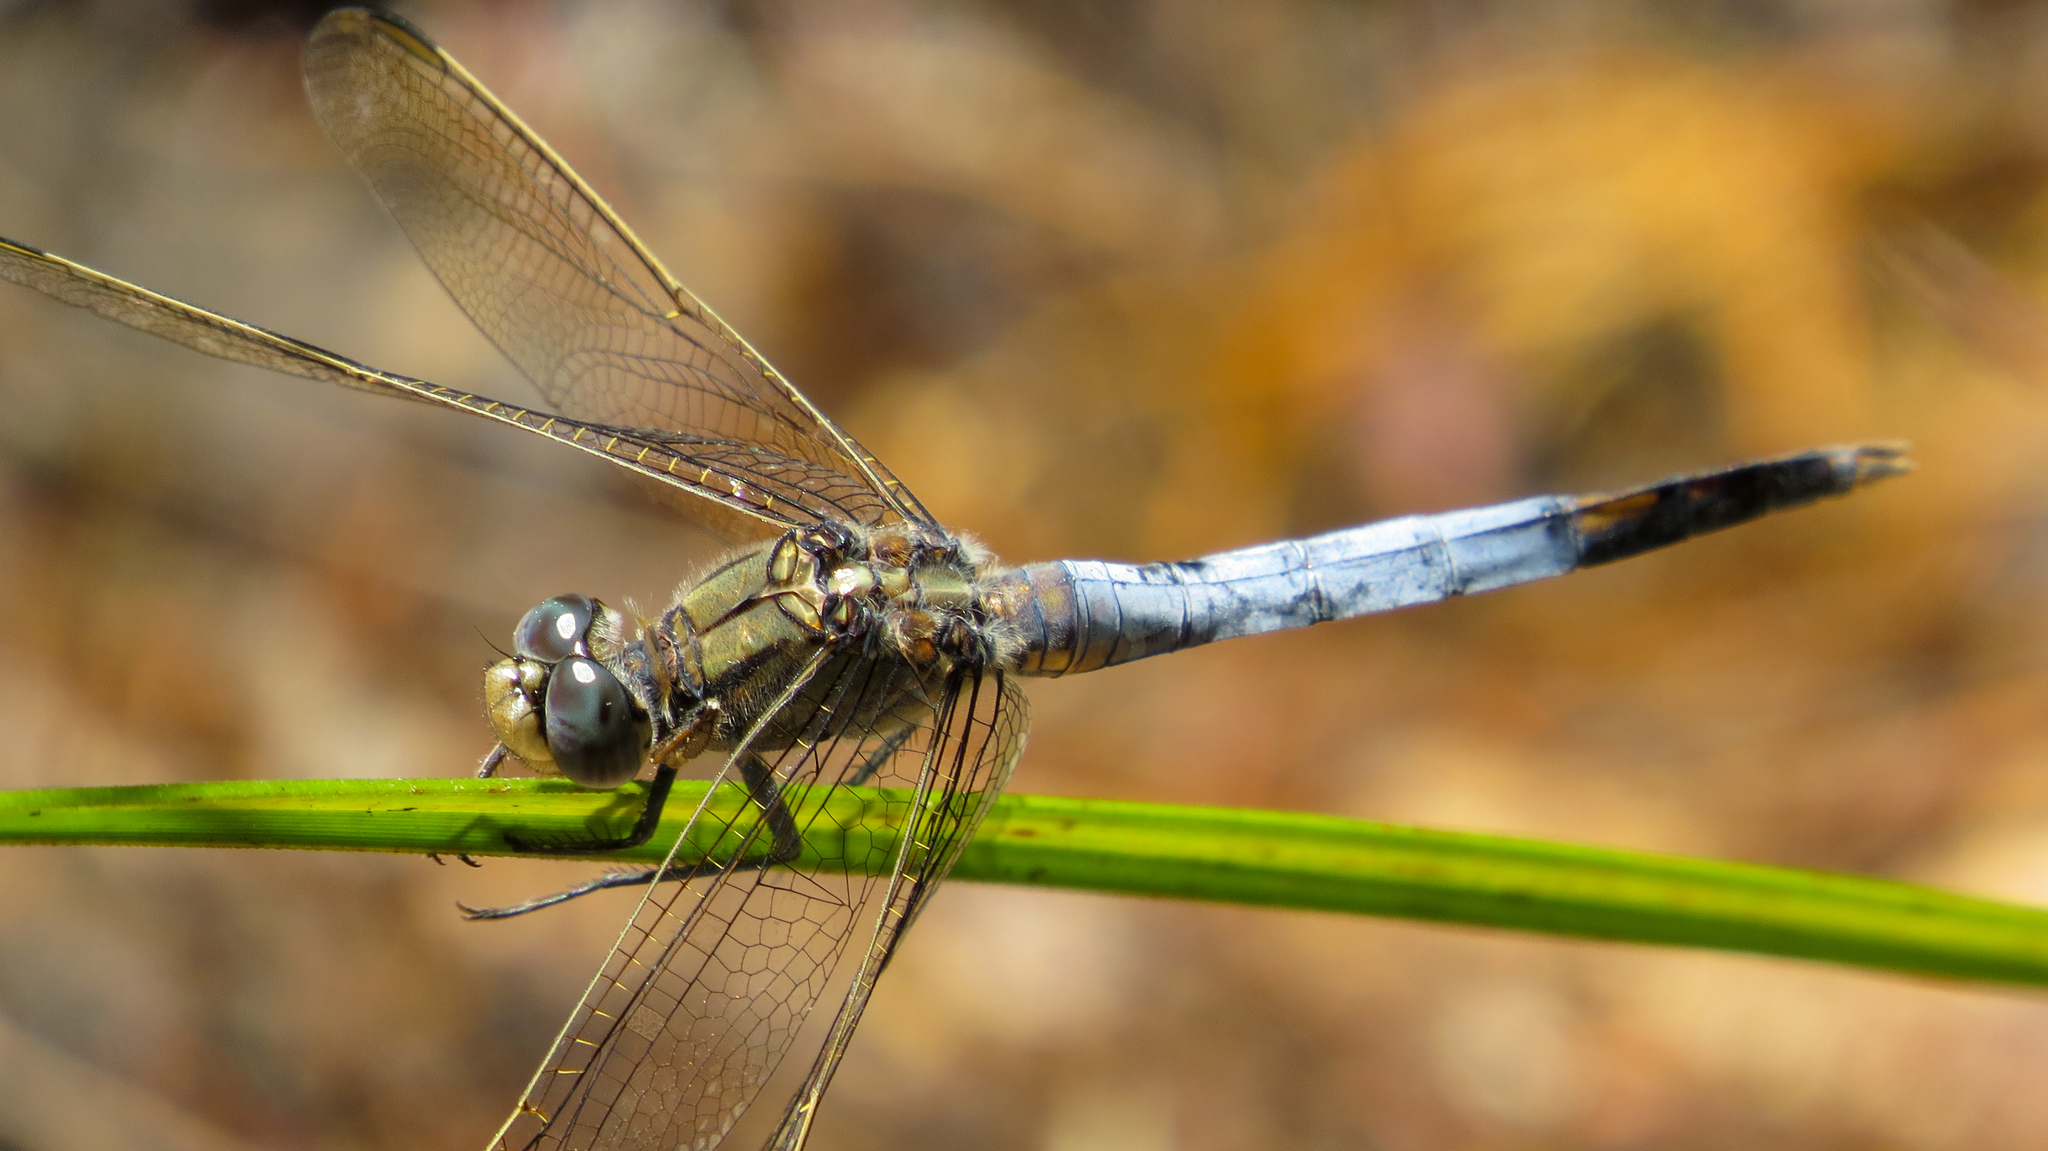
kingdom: Animalia
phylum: Arthropoda
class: Insecta
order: Odonata
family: Libellulidae
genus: Orthetrum
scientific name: Orthetrum caledonicum
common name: Blue skimmer
